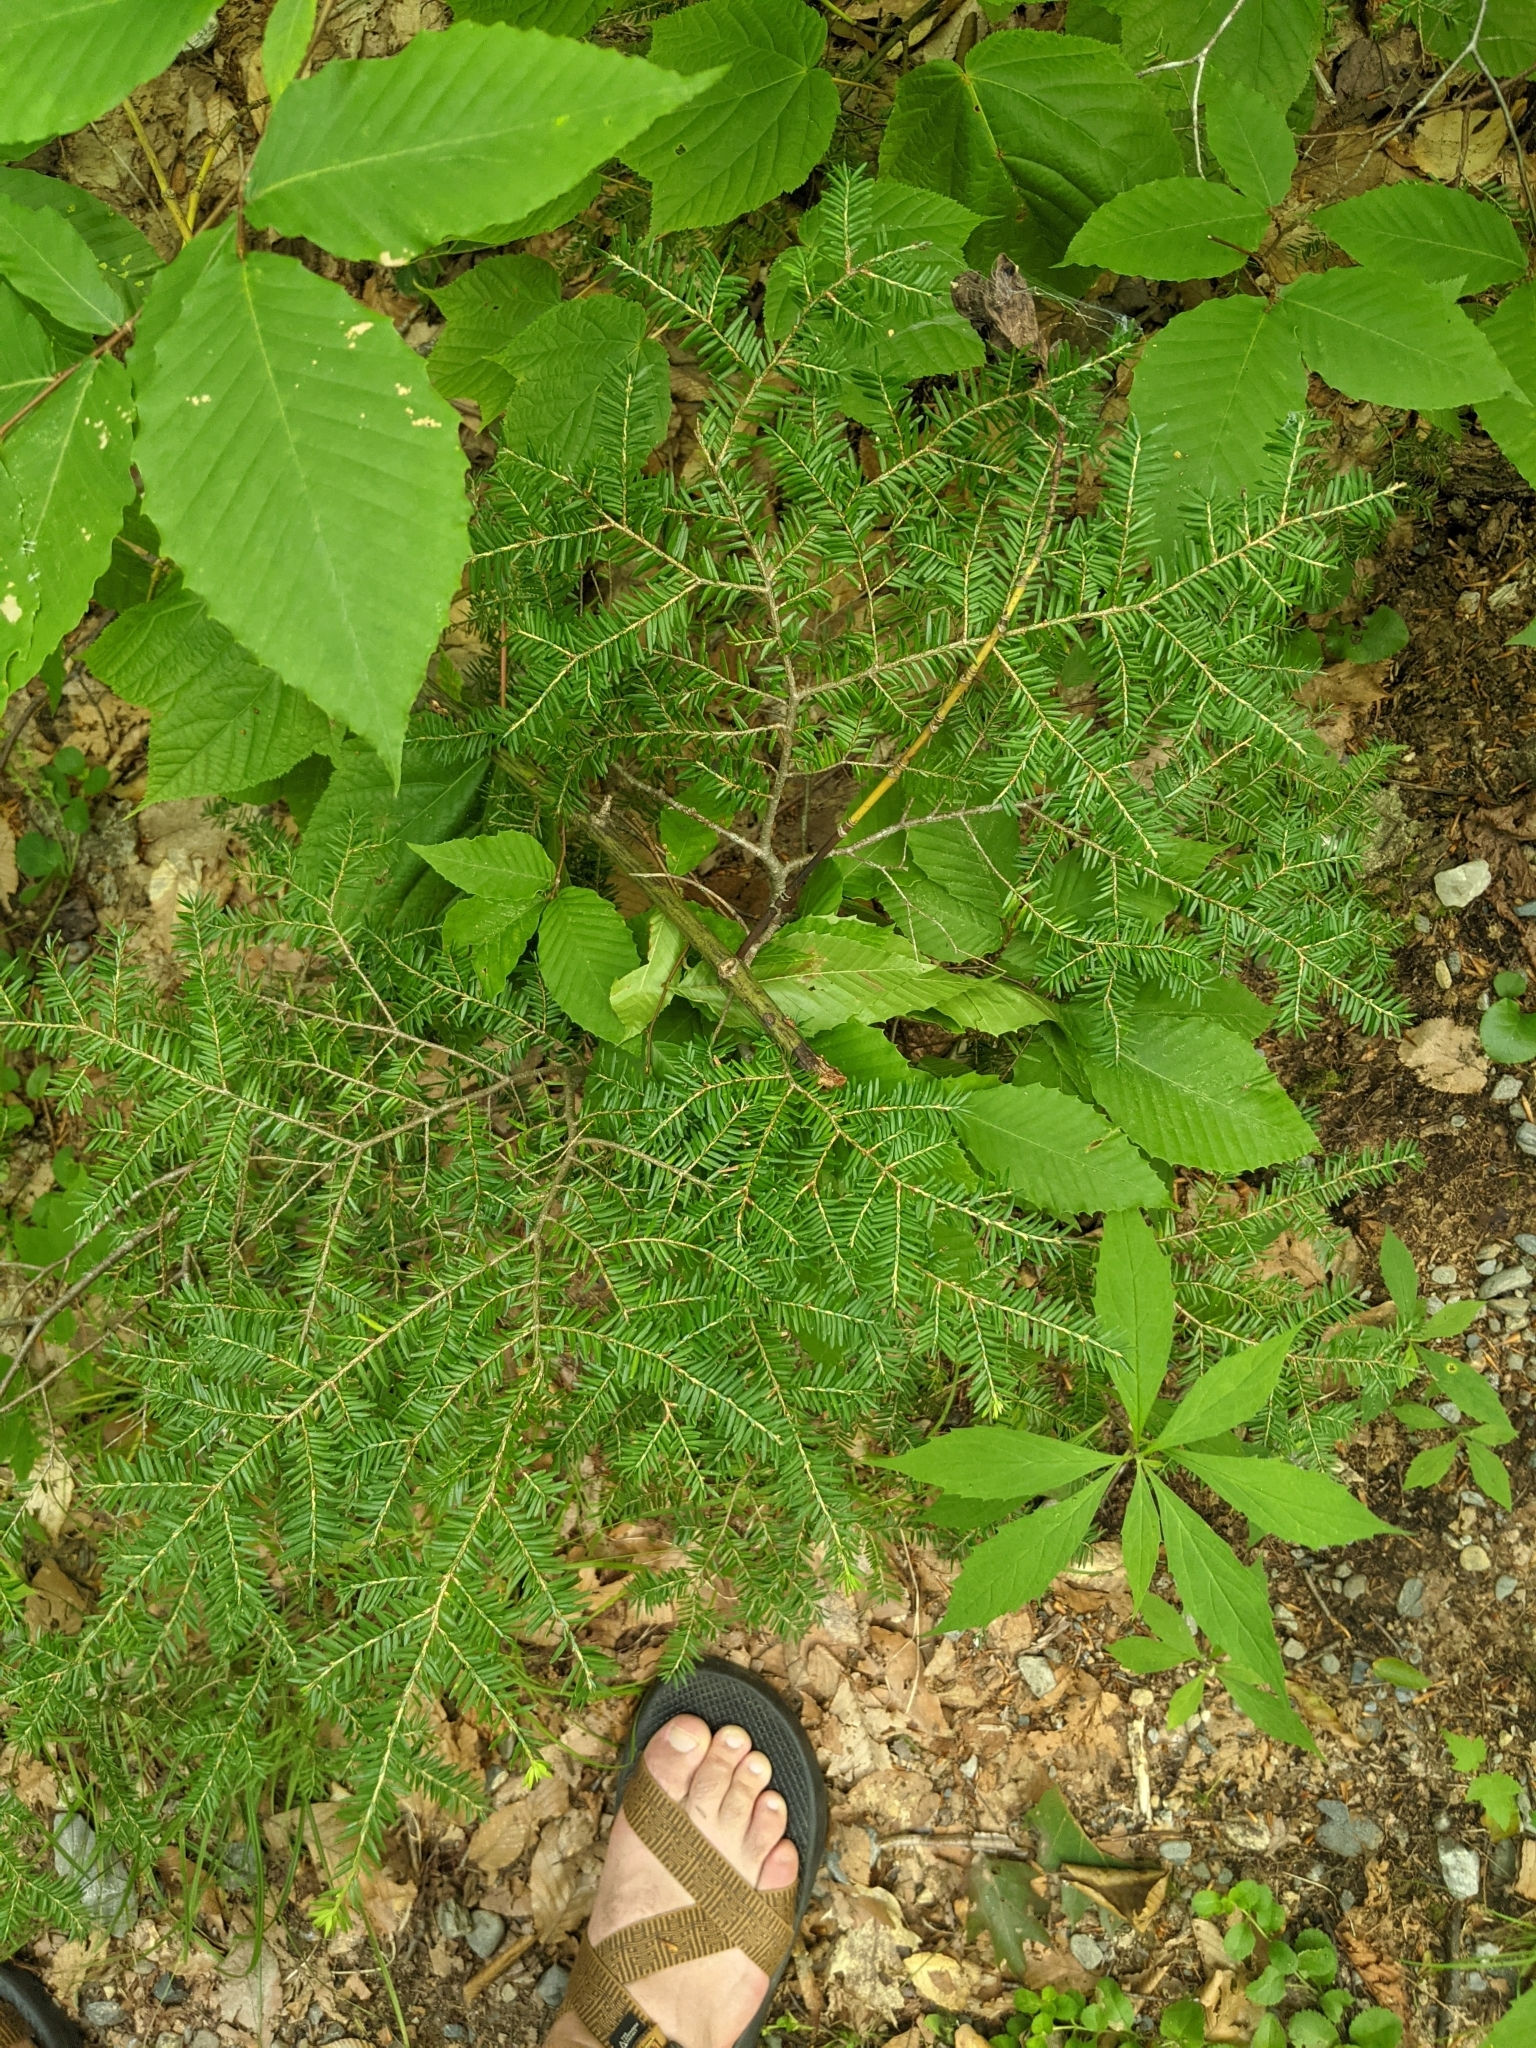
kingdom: Animalia
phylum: Arthropoda
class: Insecta
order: Hemiptera
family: Adelgidae
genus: Adelges
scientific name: Adelges tsugae
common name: Hemlock woolly adelgid
